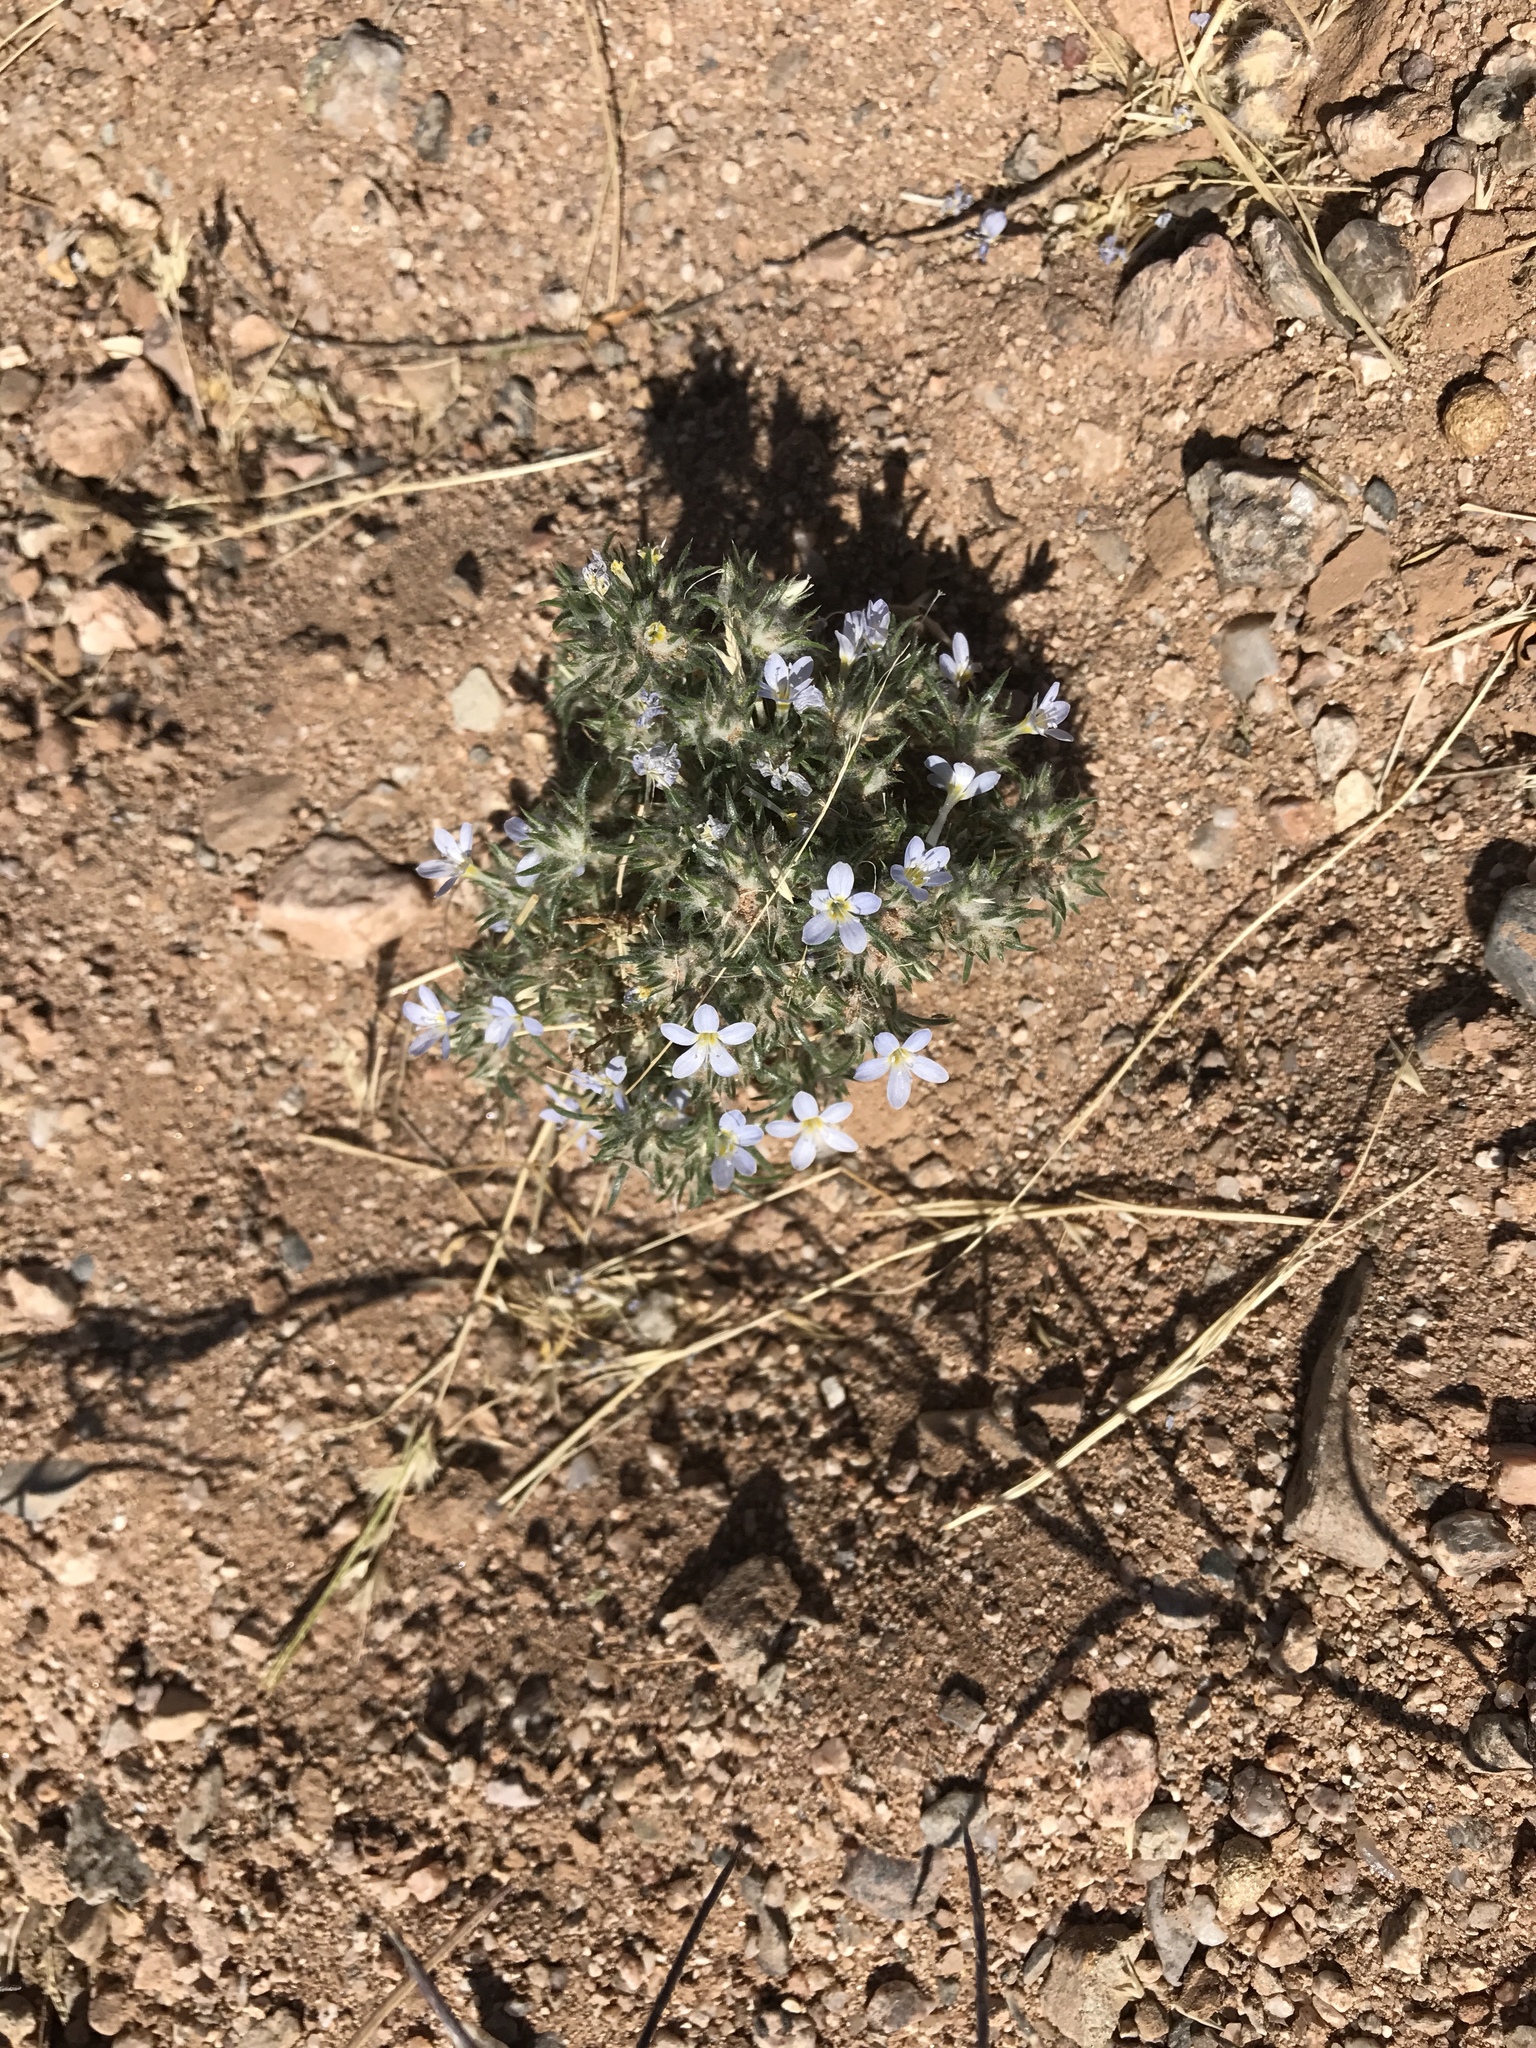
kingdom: Plantae
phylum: Tracheophyta
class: Magnoliopsida
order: Ericales
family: Polemoniaceae
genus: Eriastrum
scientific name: Eriastrum diffusum
